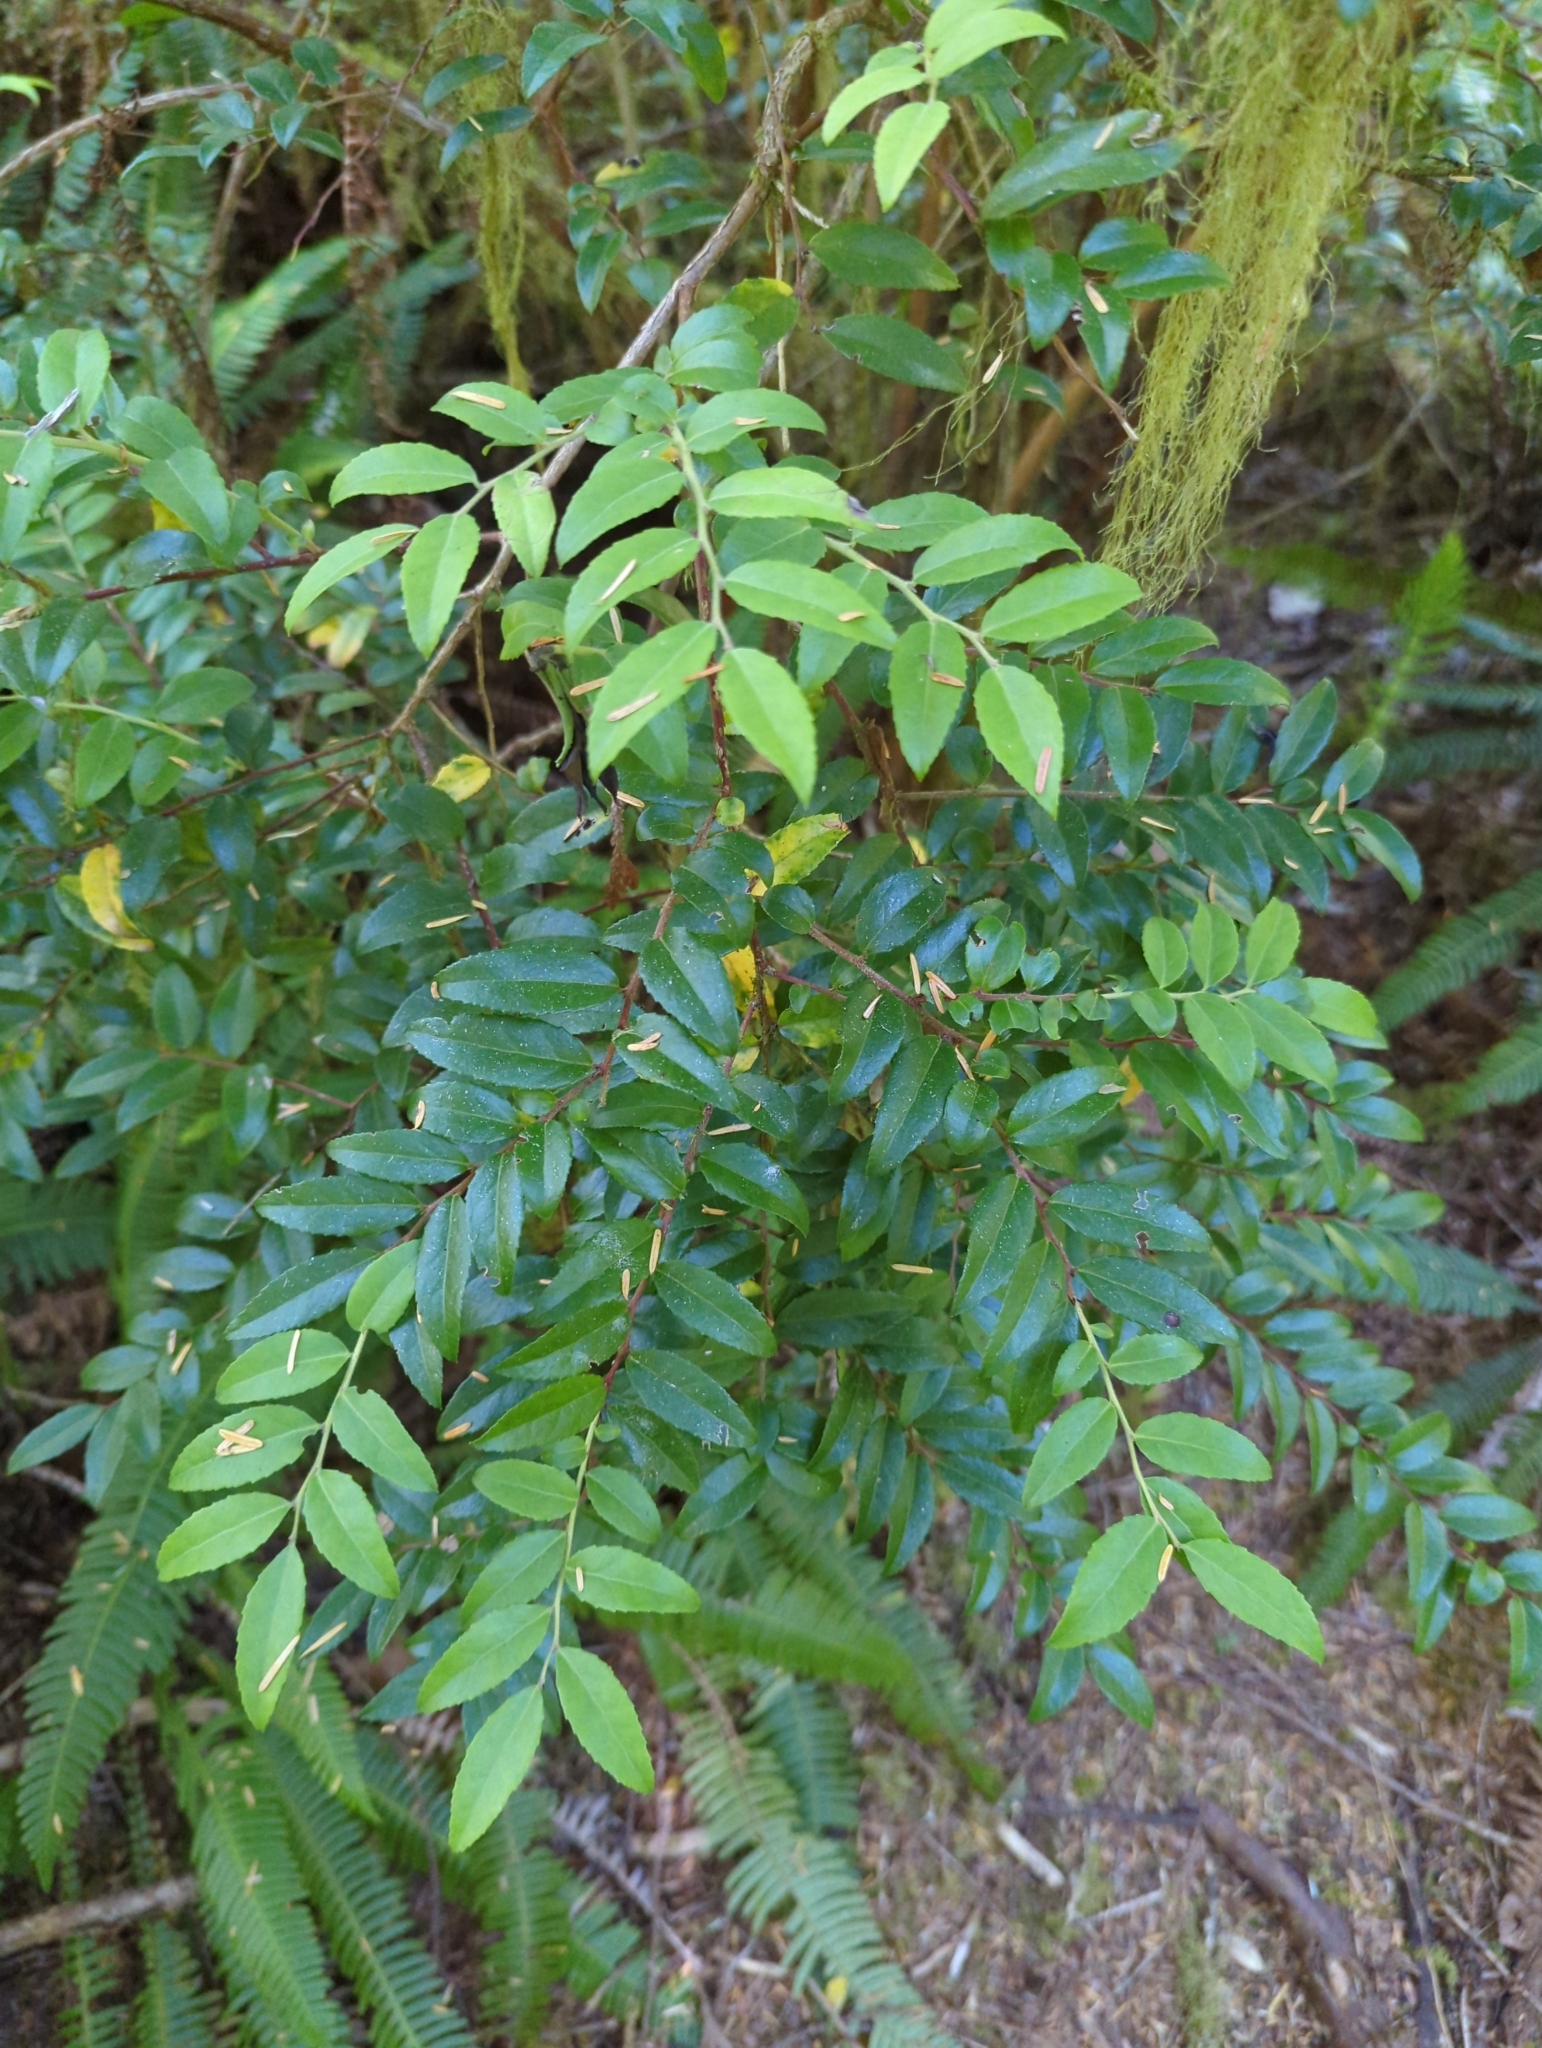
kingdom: Plantae
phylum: Tracheophyta
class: Magnoliopsida
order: Ericales
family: Ericaceae
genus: Vaccinium
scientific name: Vaccinium ovatum
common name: California-huckleberry
